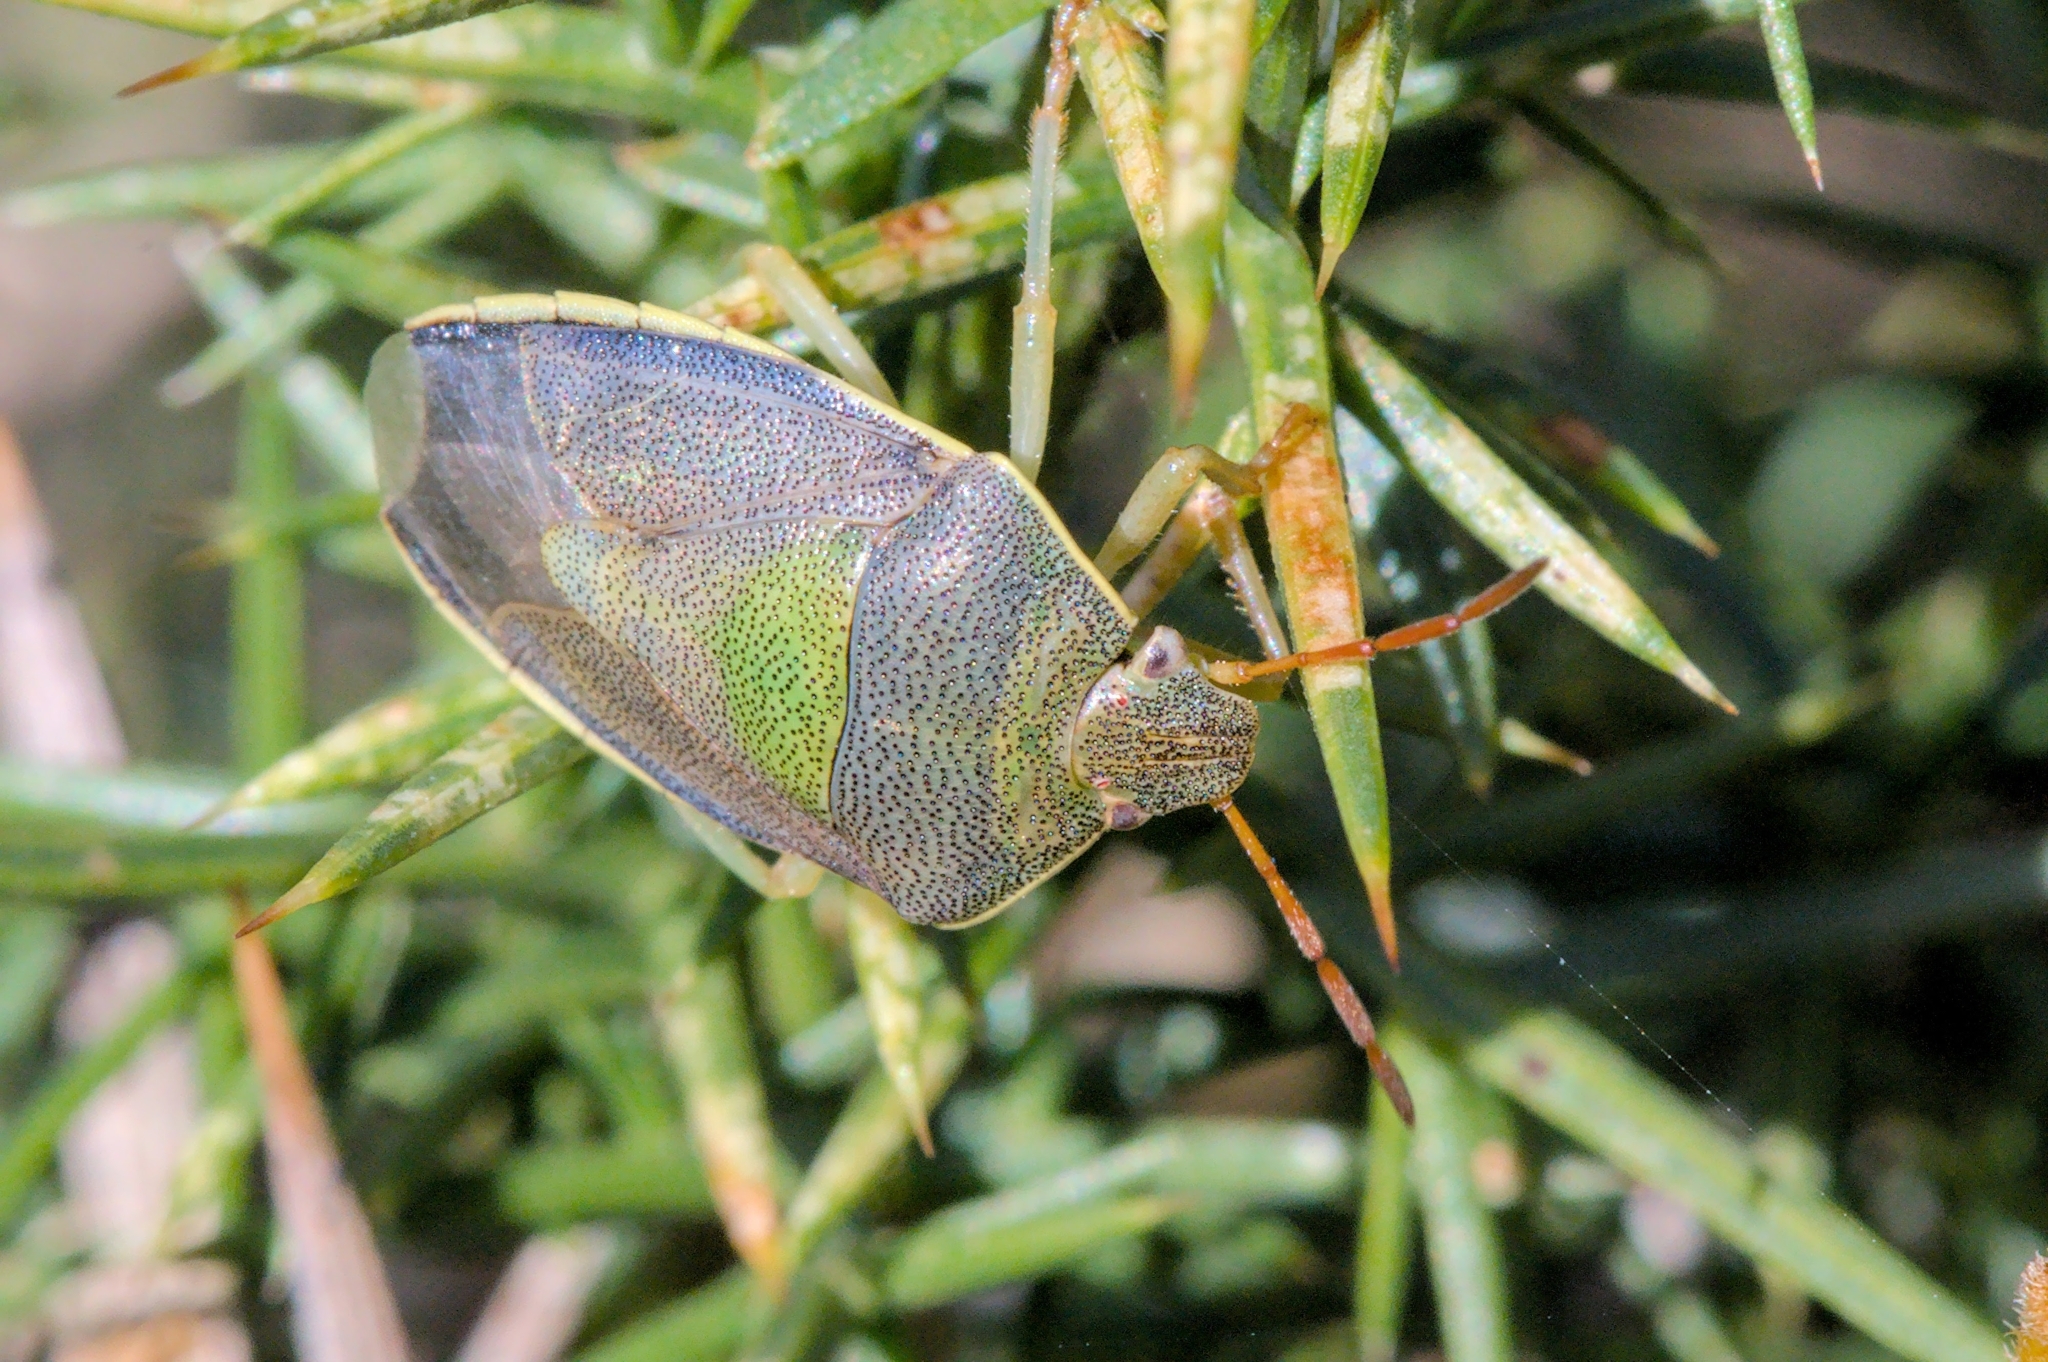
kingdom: Animalia
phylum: Arthropoda
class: Insecta
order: Hemiptera
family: Pentatomidae
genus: Piezodorus
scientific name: Piezodorus lituratus
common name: Stink bug
